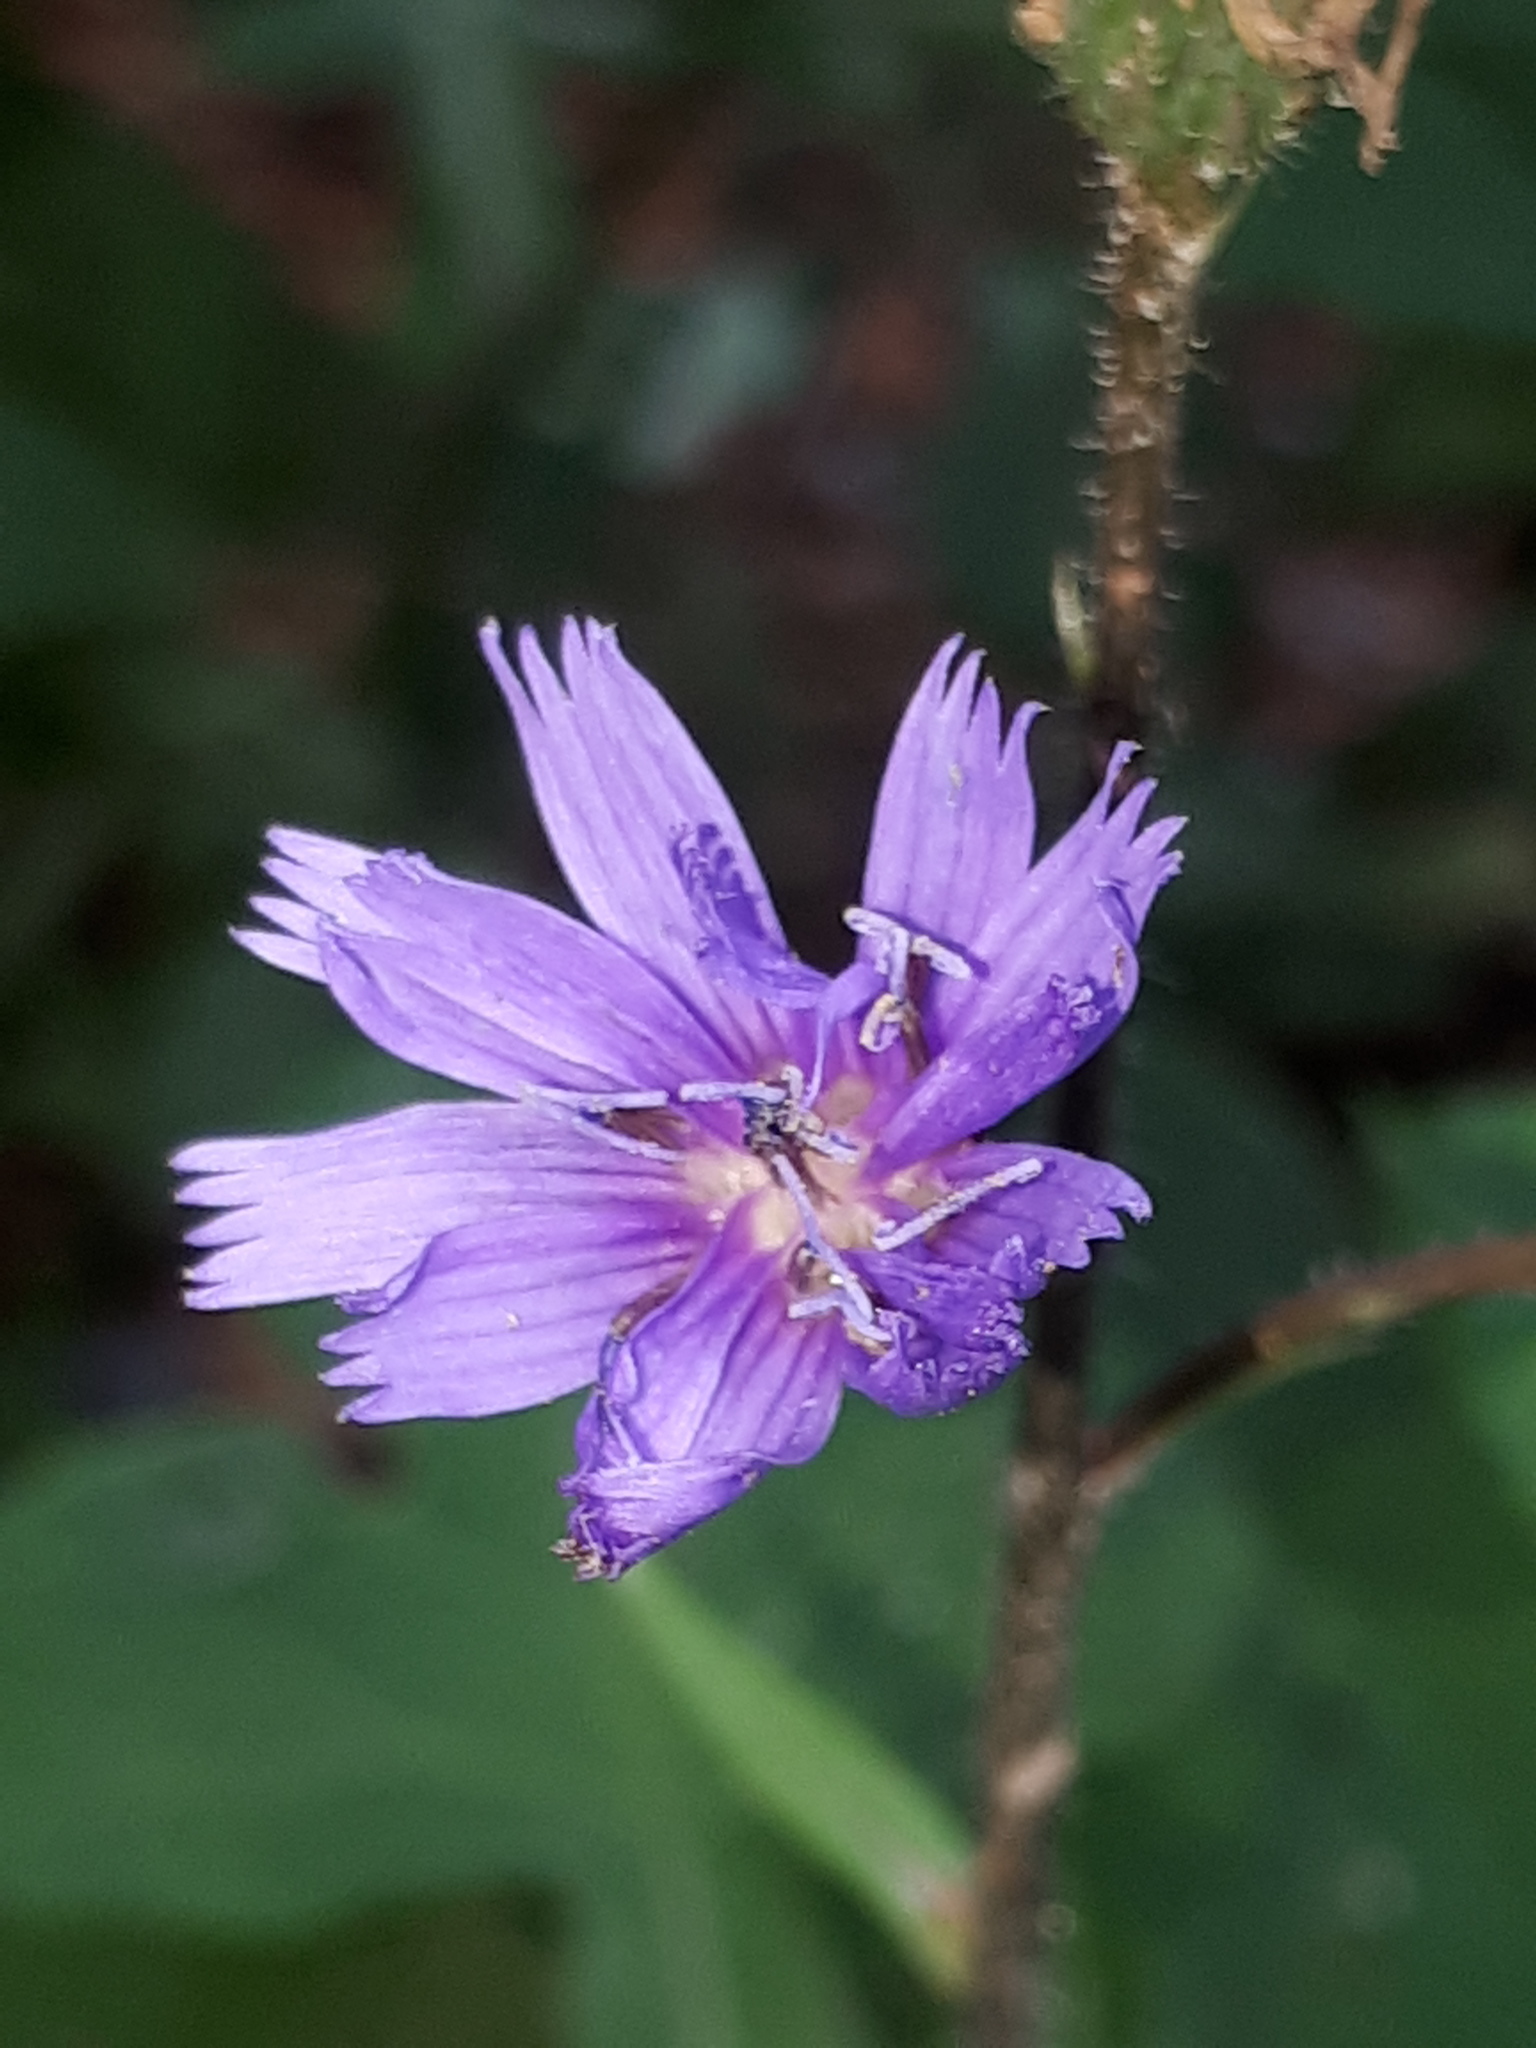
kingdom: Plantae
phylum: Tracheophyta
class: Magnoliopsida
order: Asterales
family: Asteraceae
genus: Cicerbita
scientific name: Cicerbita alpina
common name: Alpine blue-sow-thistle
